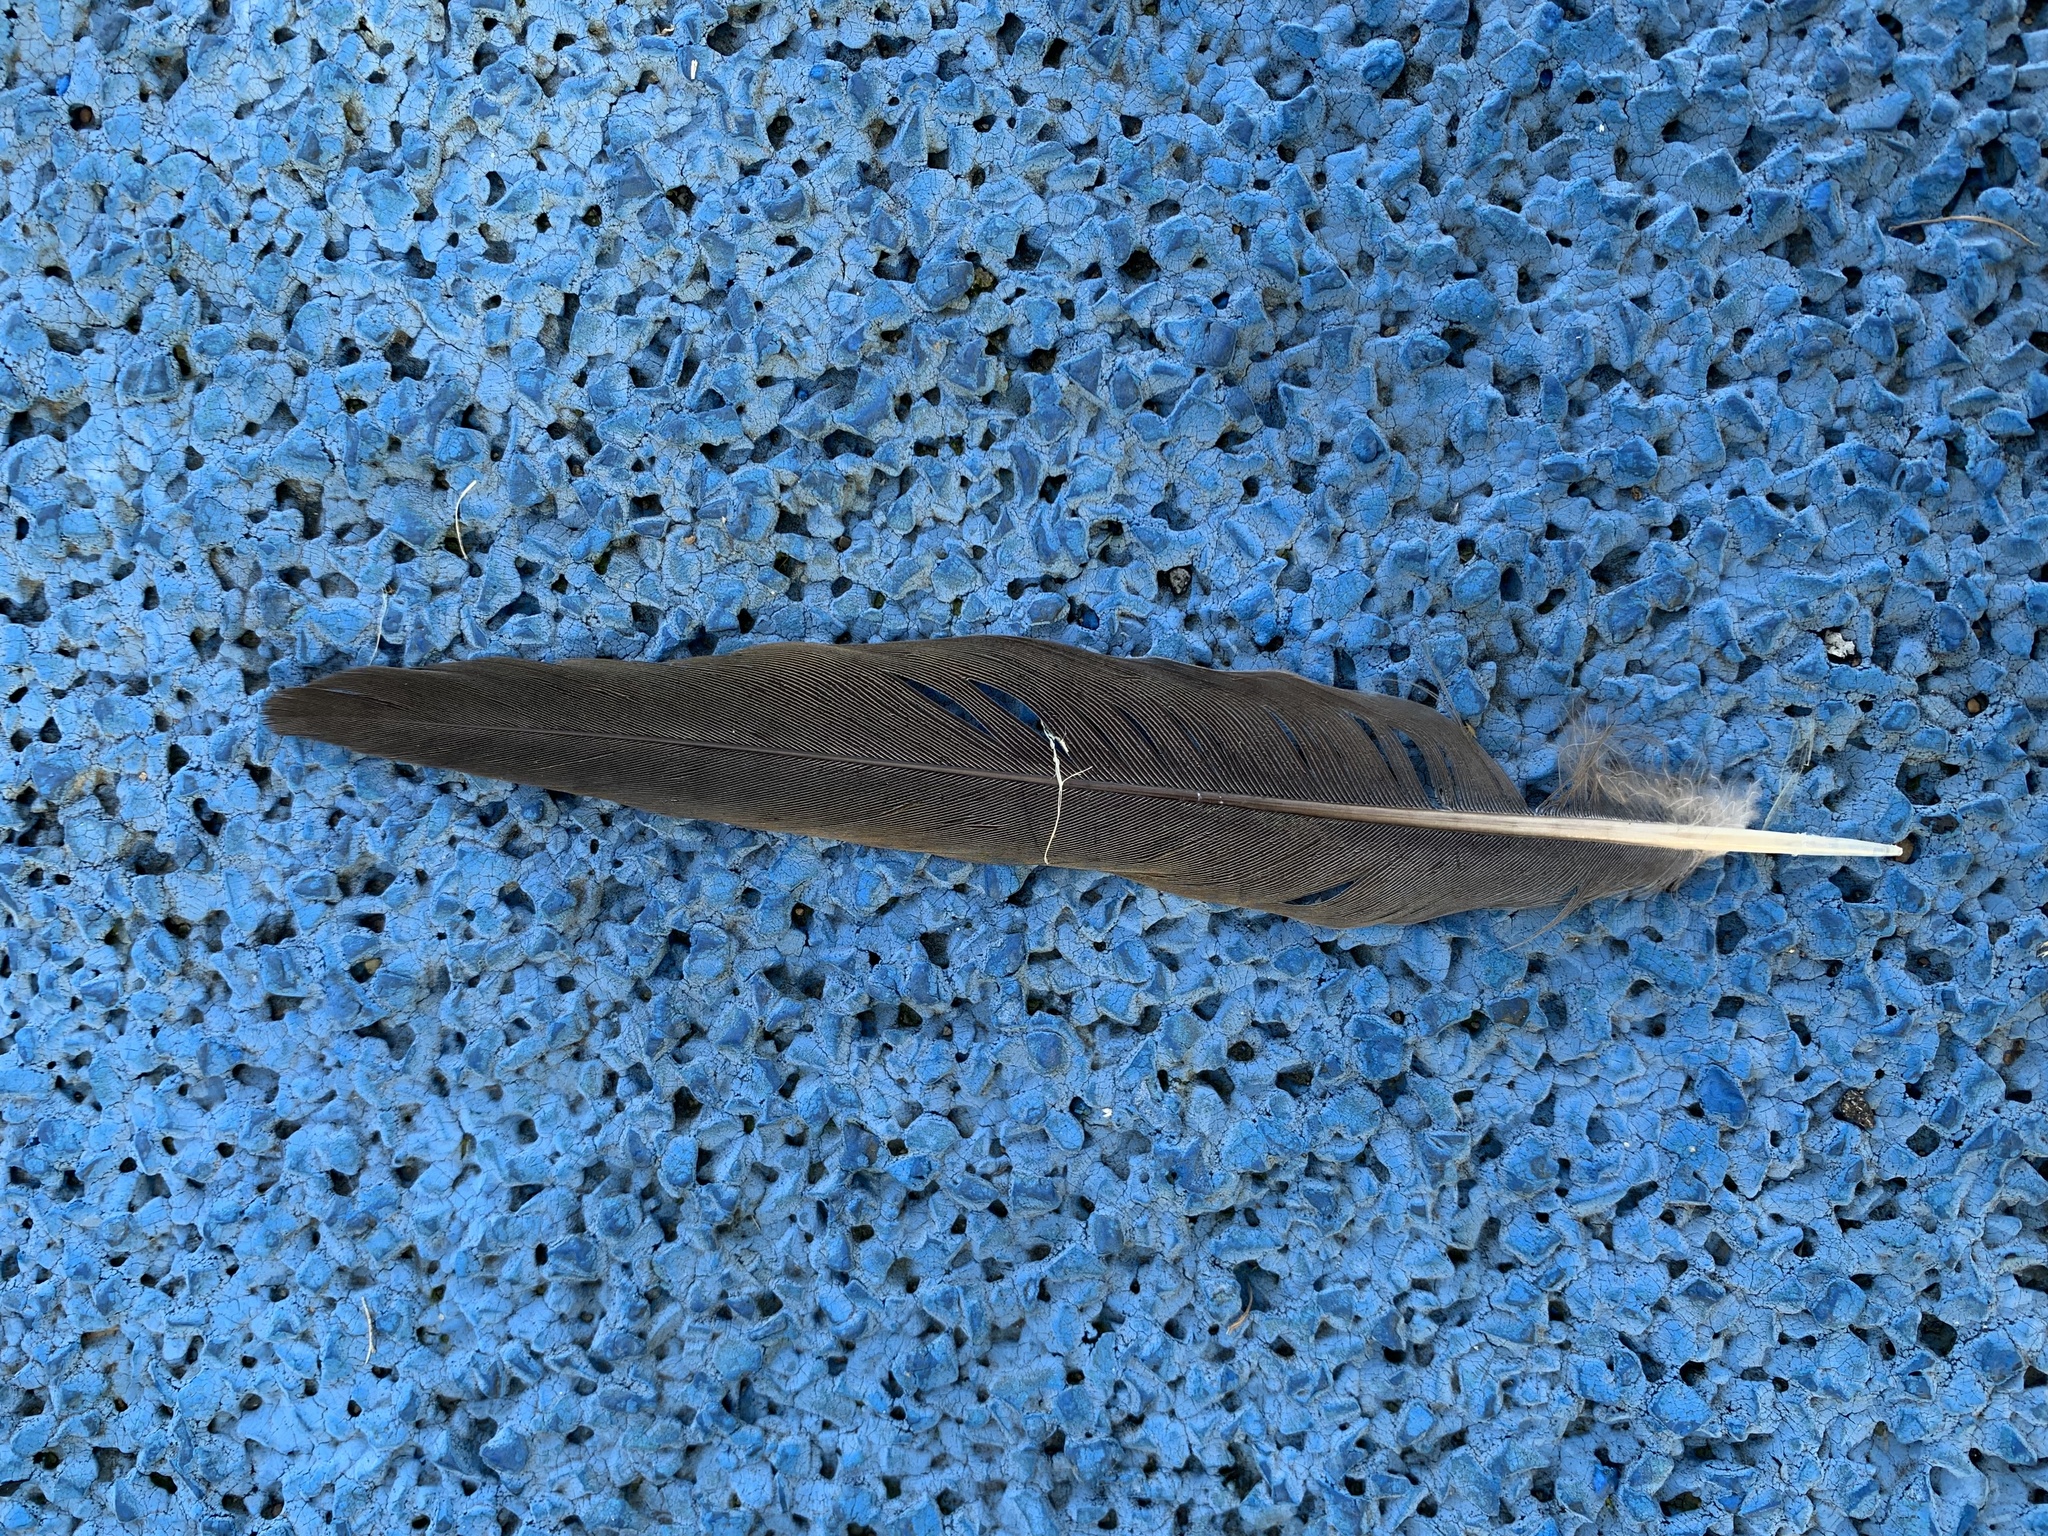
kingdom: Animalia
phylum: Chordata
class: Aves
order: Columbiformes
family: Columbidae
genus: Zenaida
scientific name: Zenaida macroura
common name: Mourning dove
